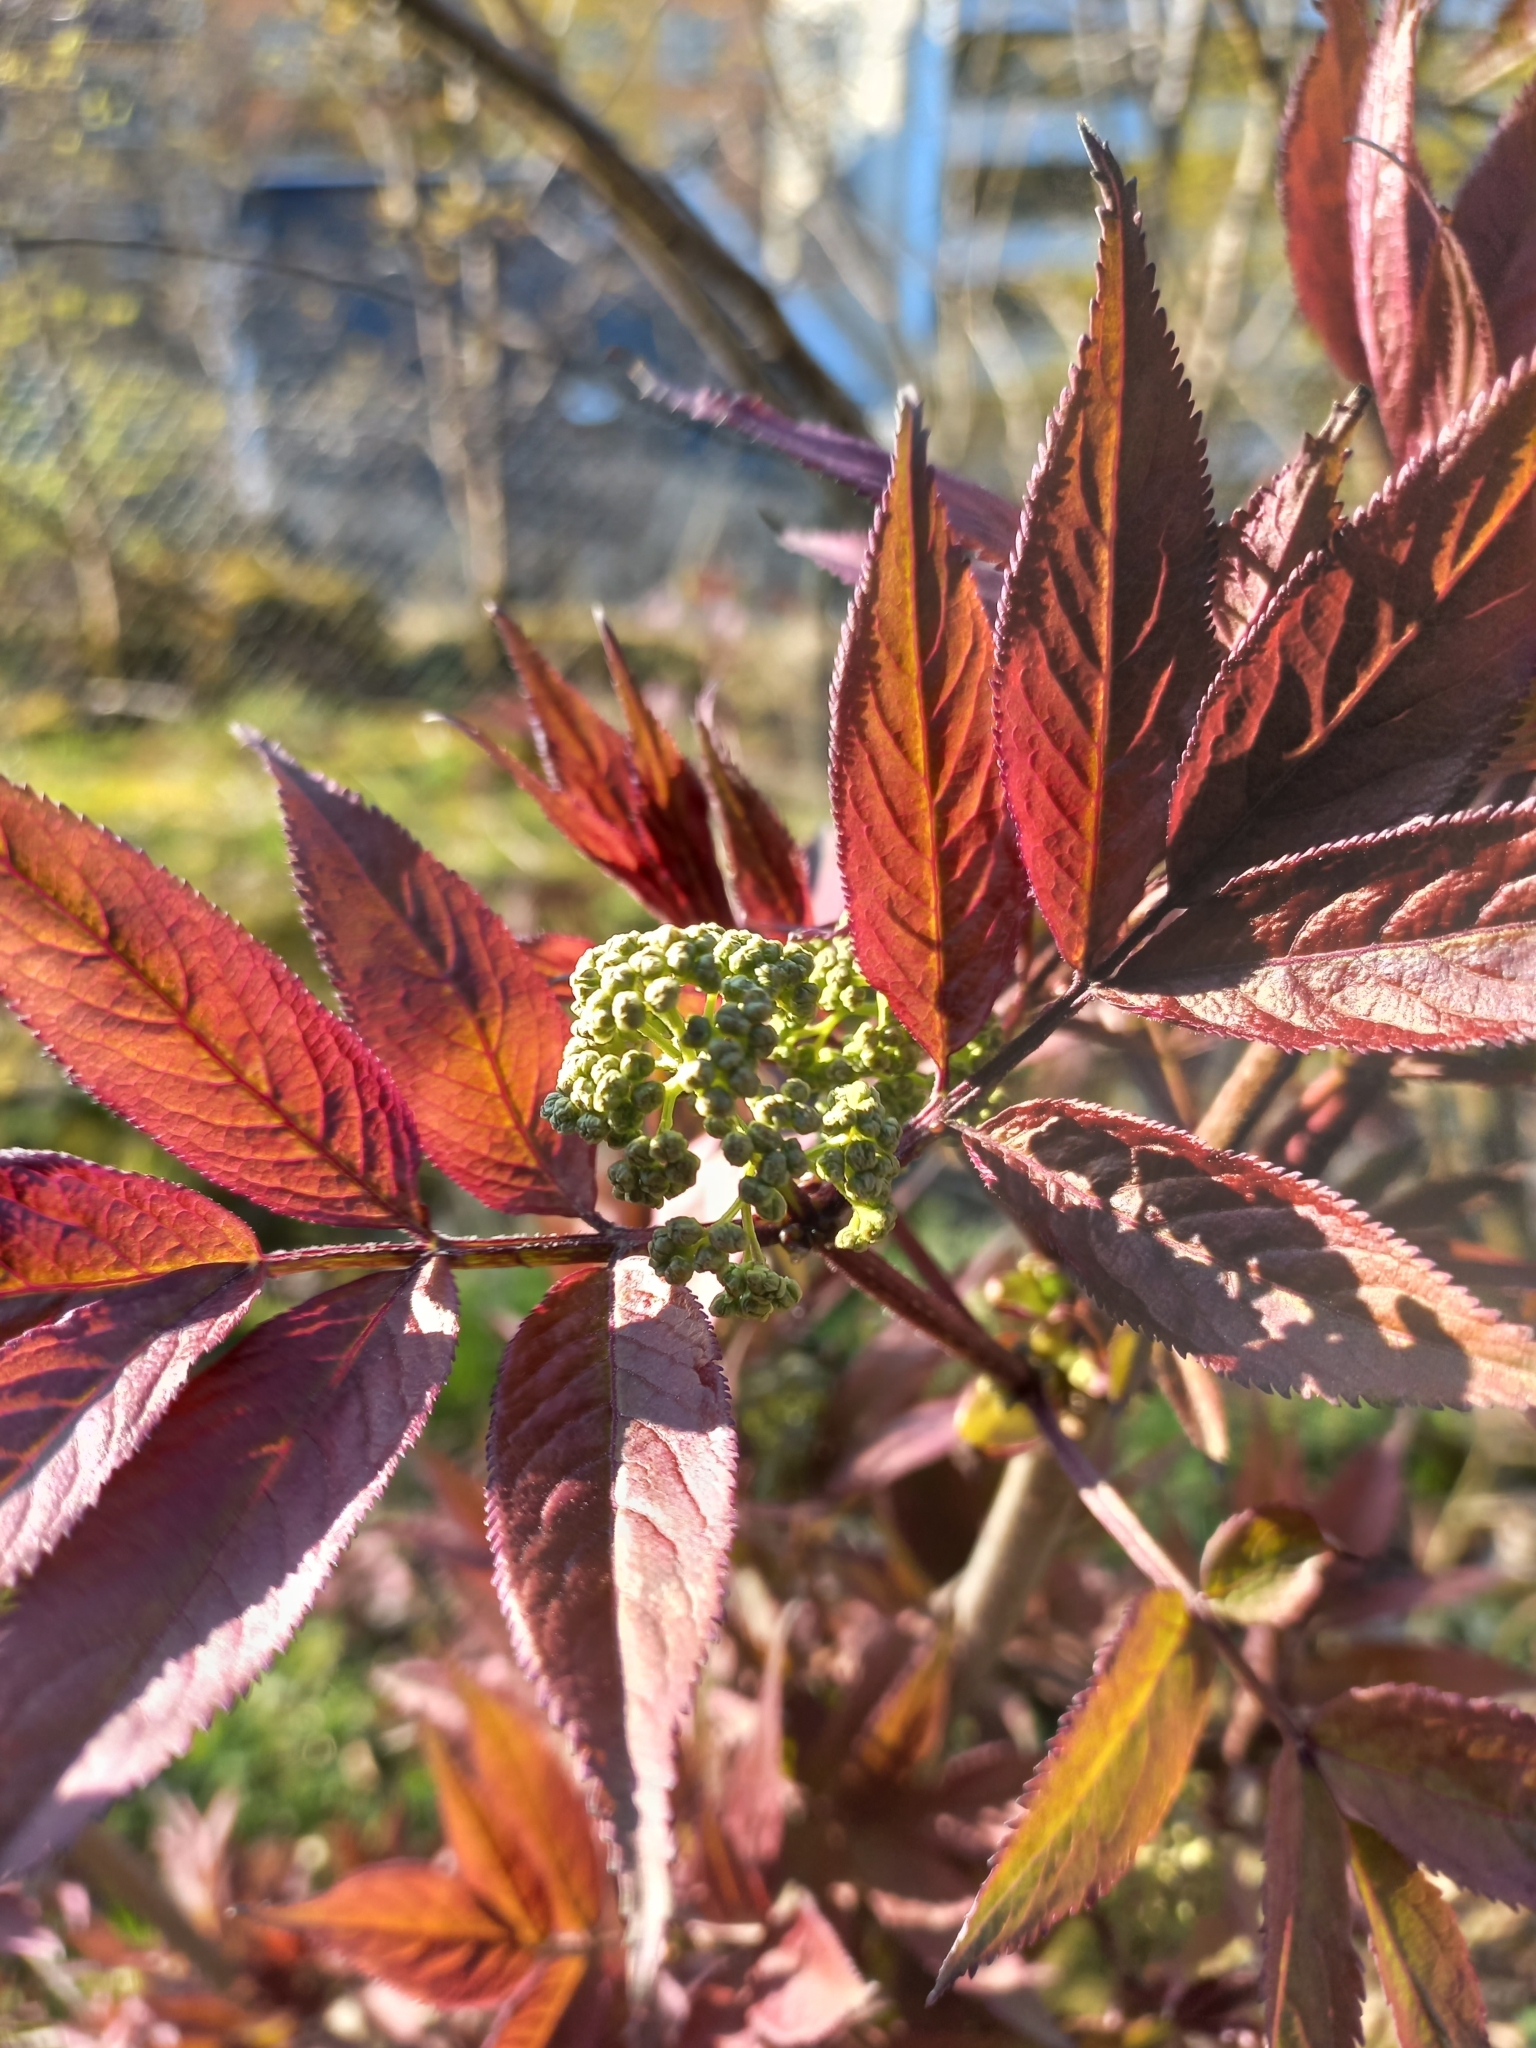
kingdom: Plantae
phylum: Tracheophyta
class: Magnoliopsida
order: Dipsacales
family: Viburnaceae
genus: Sambucus
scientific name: Sambucus racemosa
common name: Red-berried elder
